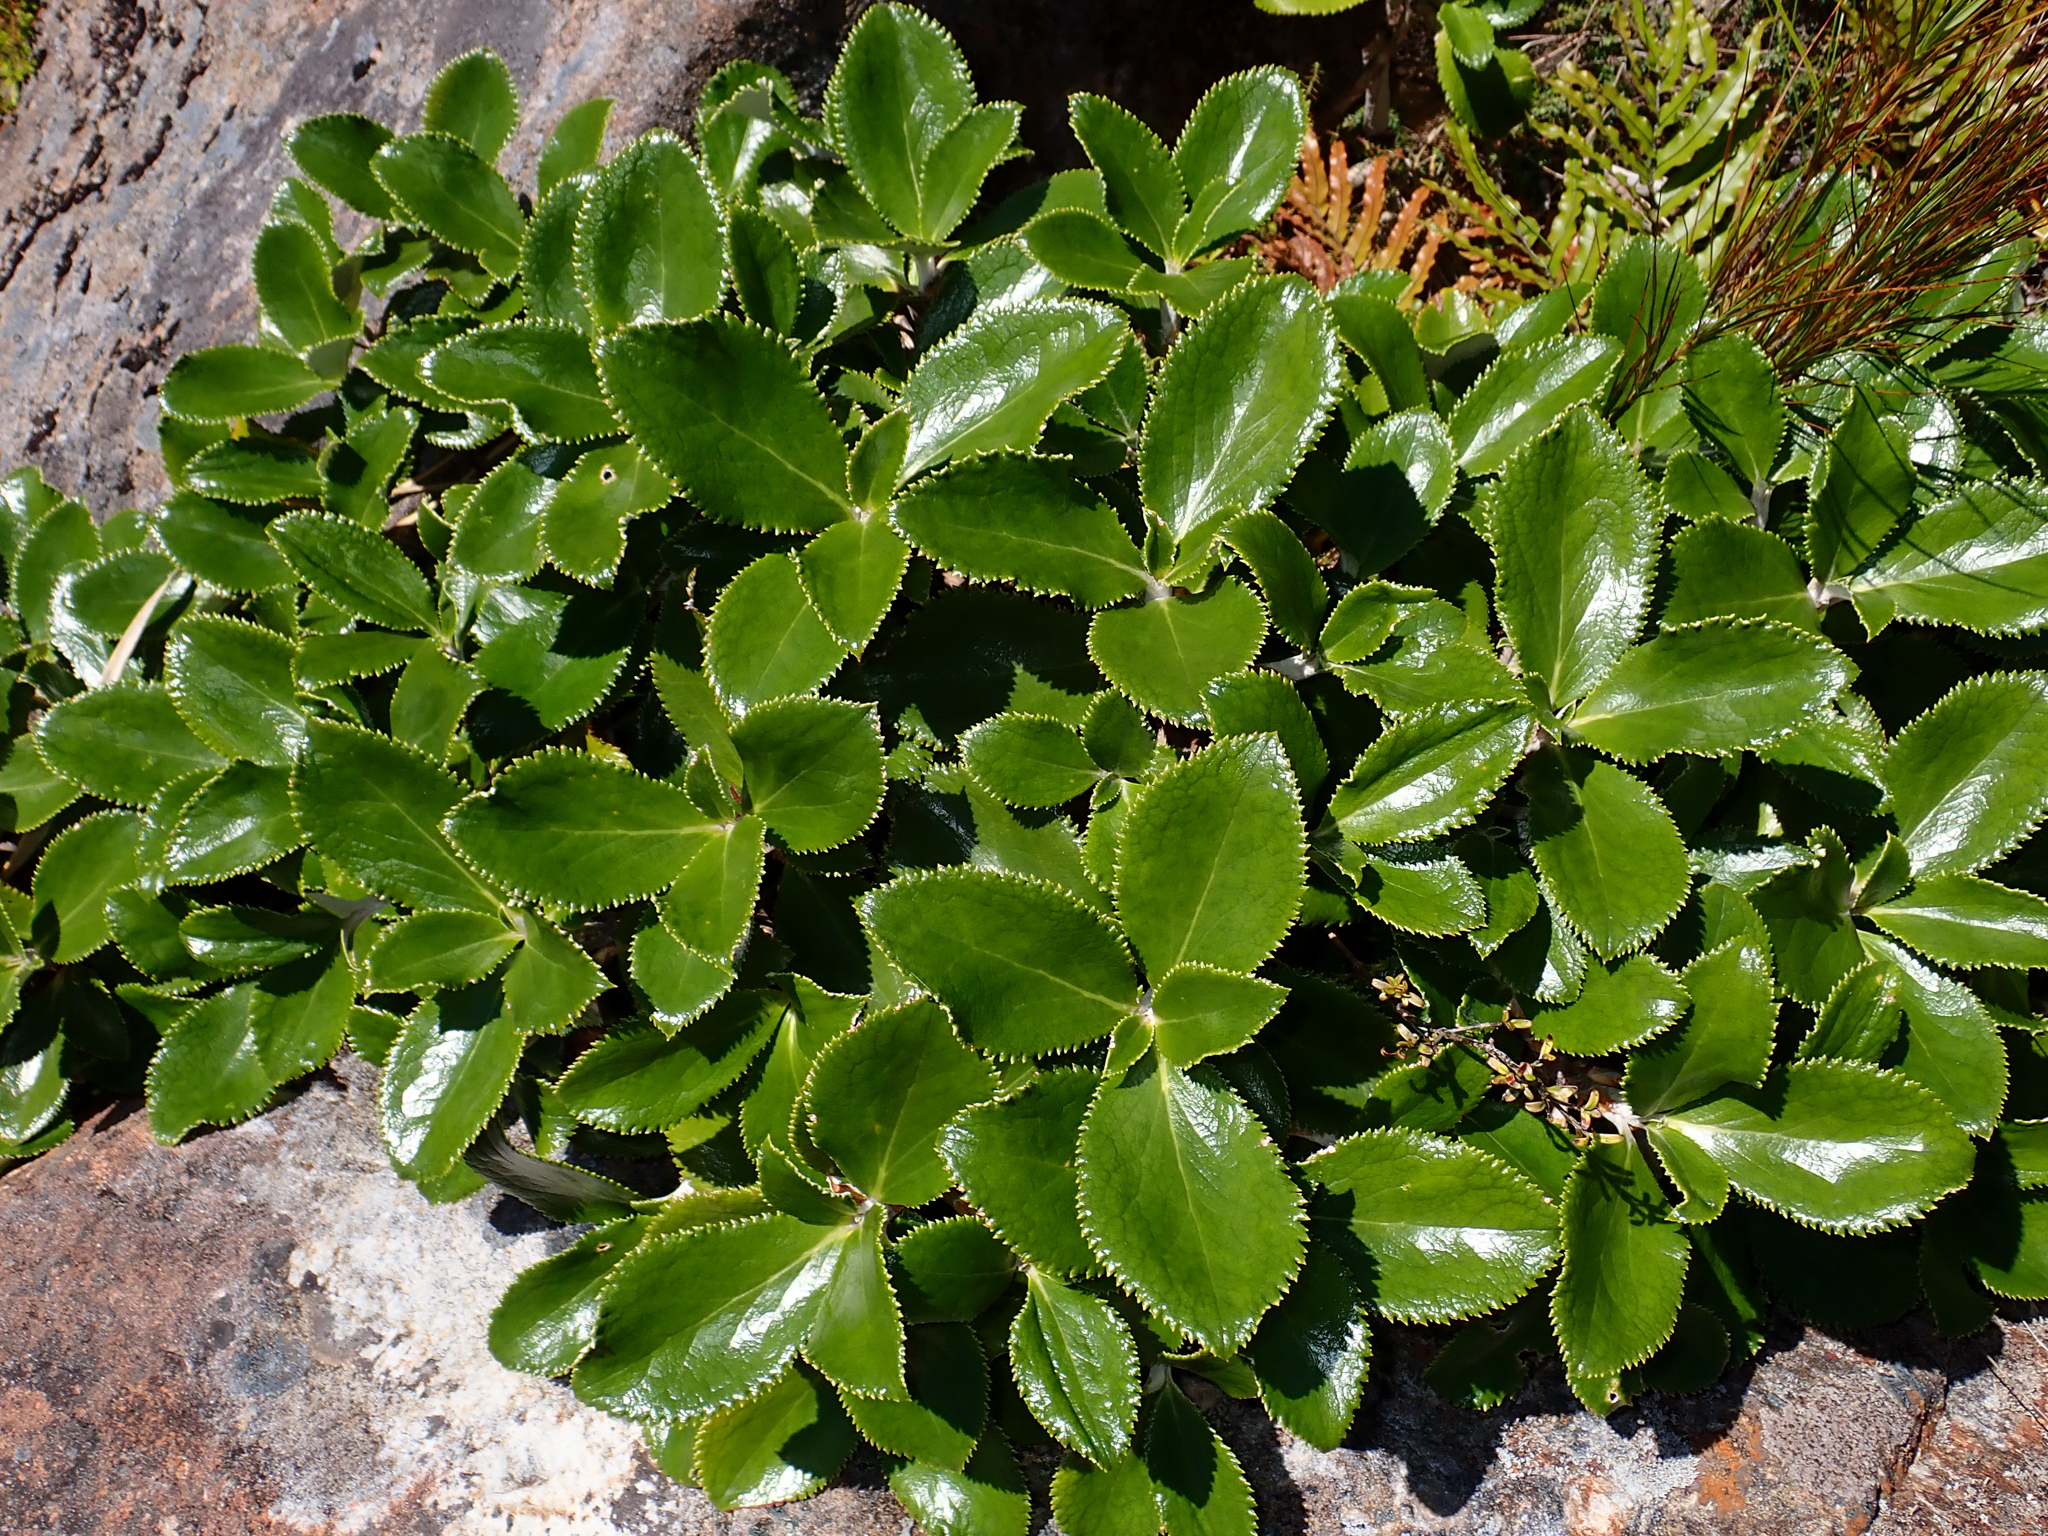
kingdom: Plantae
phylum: Tracheophyta
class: Magnoliopsida
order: Asterales
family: Asteraceae
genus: Macrolearia
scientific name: Macrolearia colensoi
